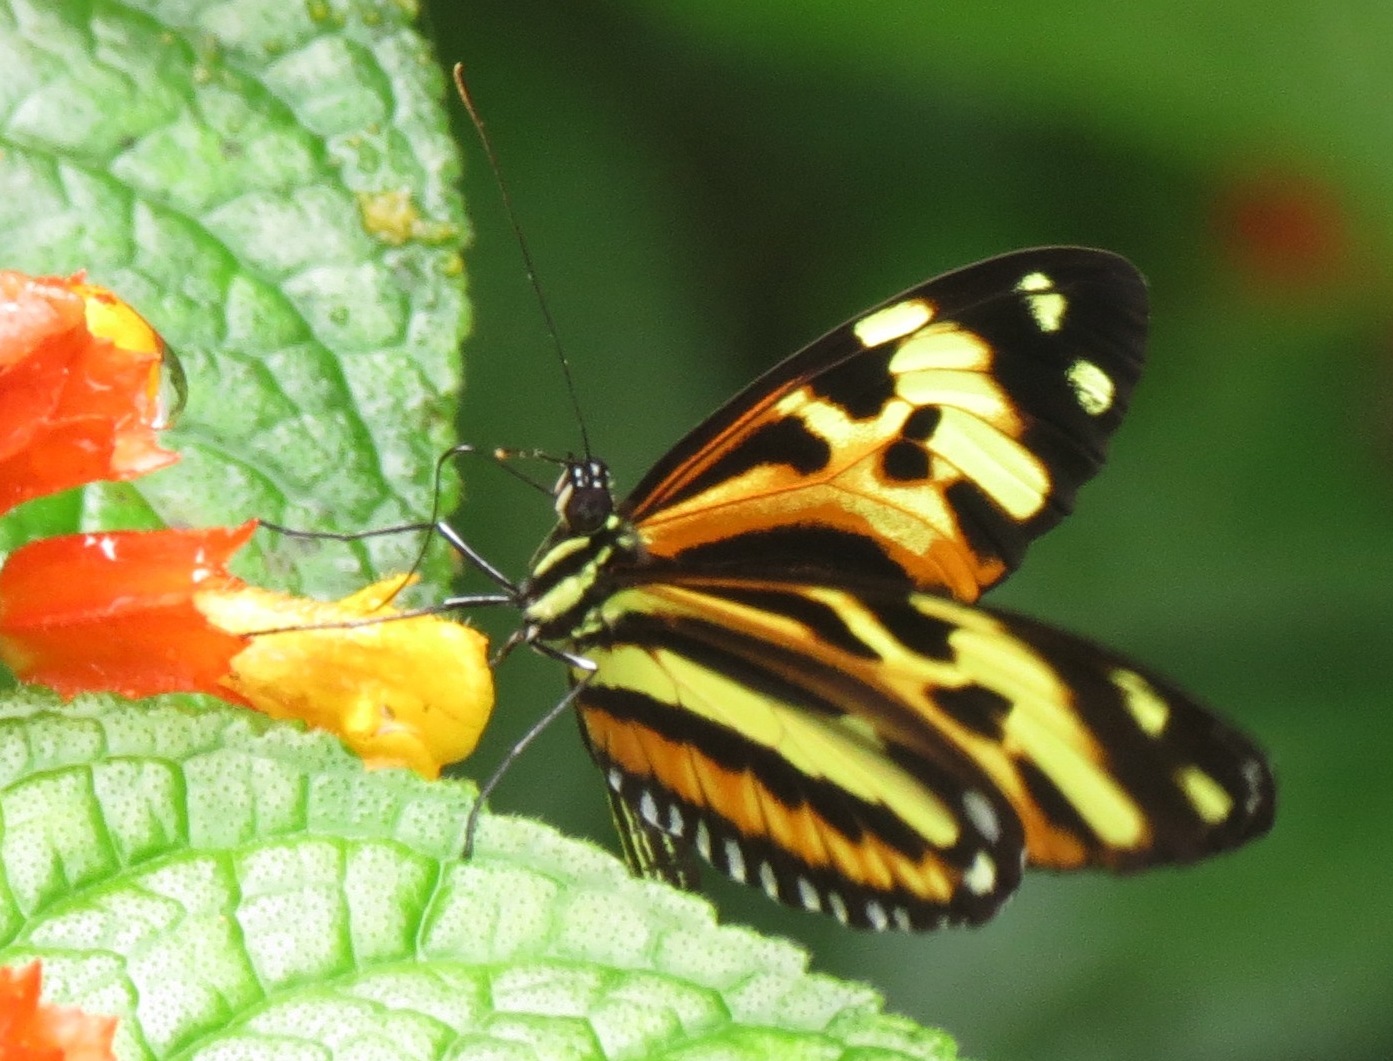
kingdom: Animalia
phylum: Arthropoda
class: Insecta
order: Lepidoptera
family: Nymphalidae
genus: Heliconius
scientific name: Heliconius ethilla
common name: Ethilia longwing
